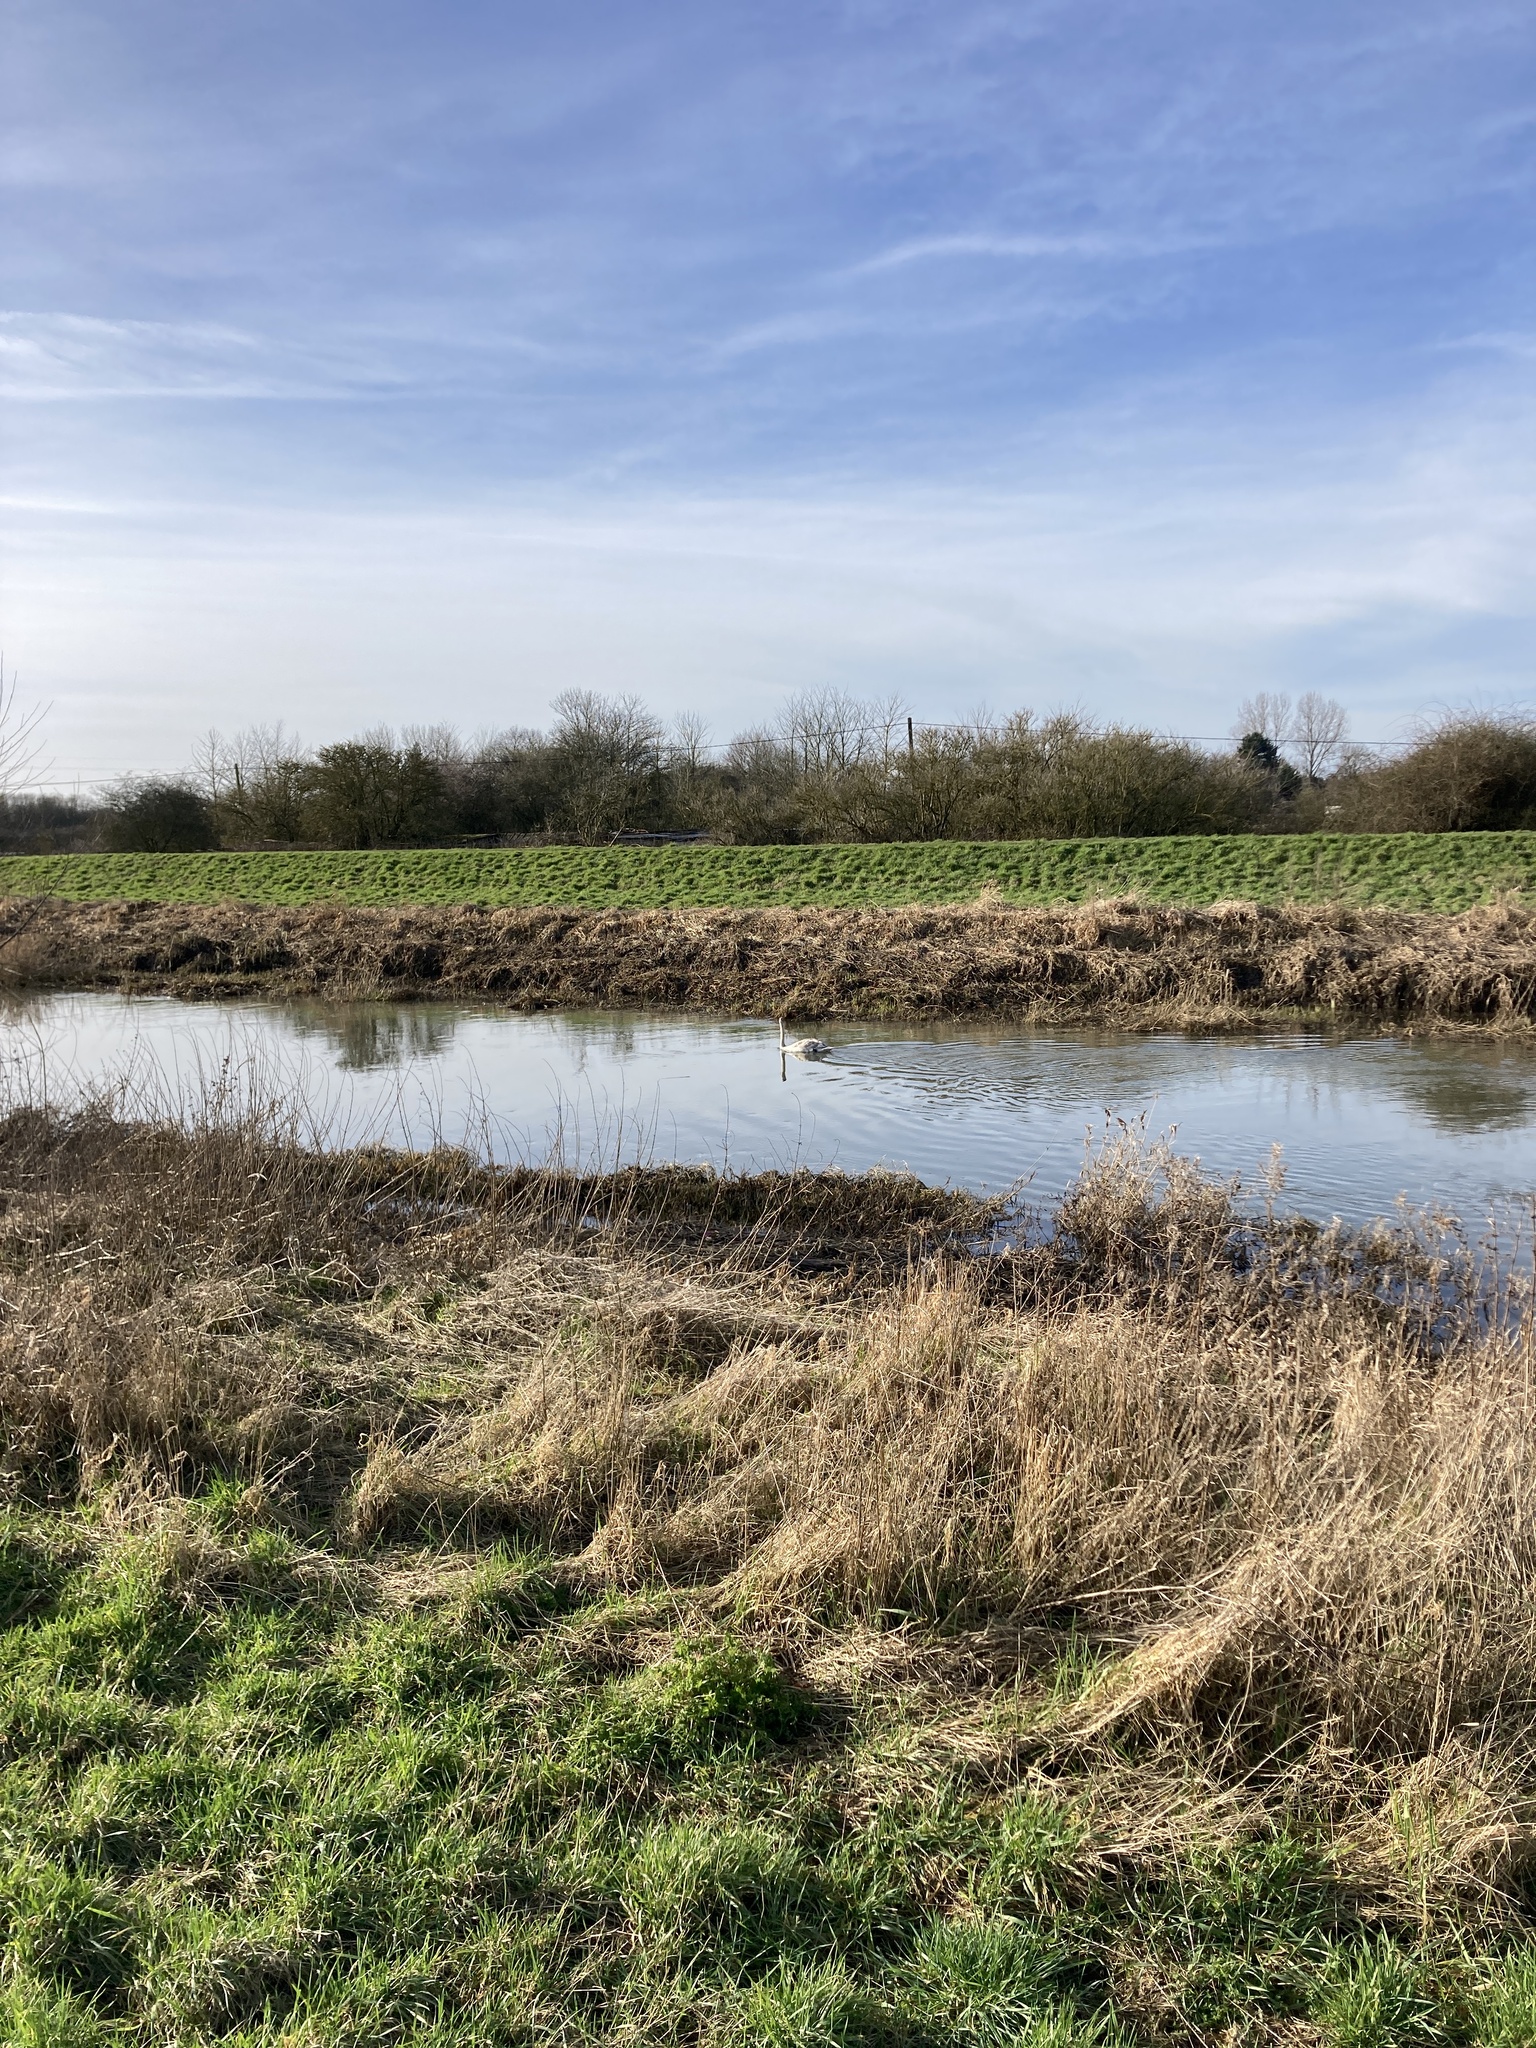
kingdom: Animalia
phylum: Chordata
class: Aves
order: Anseriformes
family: Anatidae
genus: Cygnus
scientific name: Cygnus olor
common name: Mute swan
